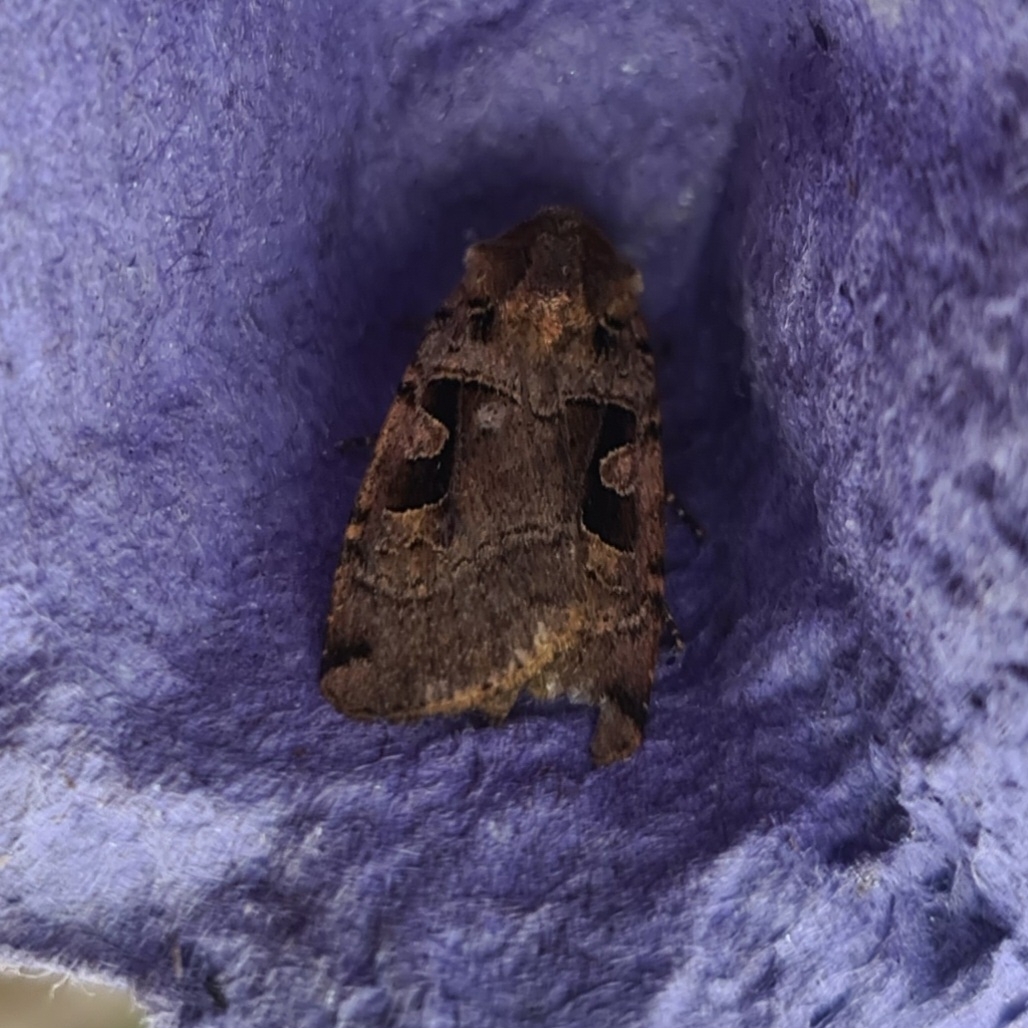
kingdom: Animalia
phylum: Arthropoda
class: Insecta
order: Lepidoptera
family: Noctuidae
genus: Xestia
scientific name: Xestia triangulum
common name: Double square-spot
